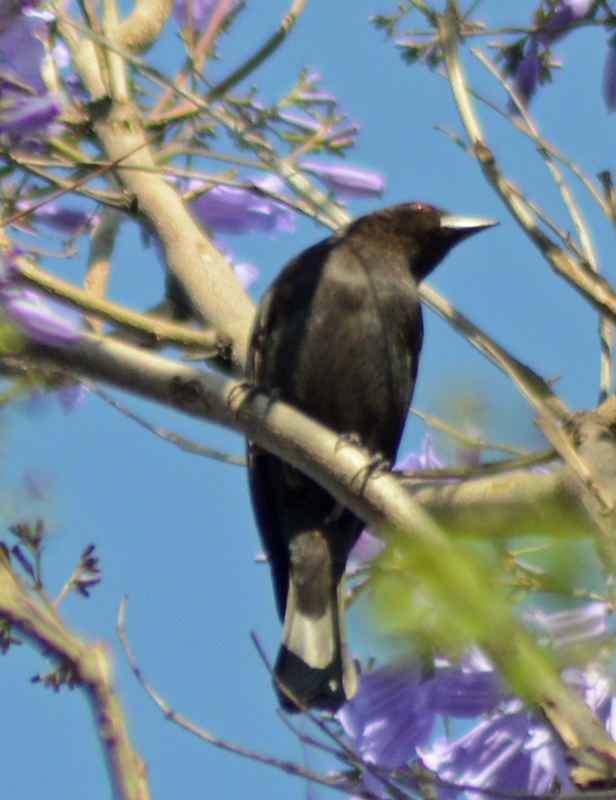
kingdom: Animalia
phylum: Chordata
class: Aves
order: Passeriformes
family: Icteridae
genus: Molothrus
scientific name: Molothrus aeneus
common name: Bronzed cowbird
